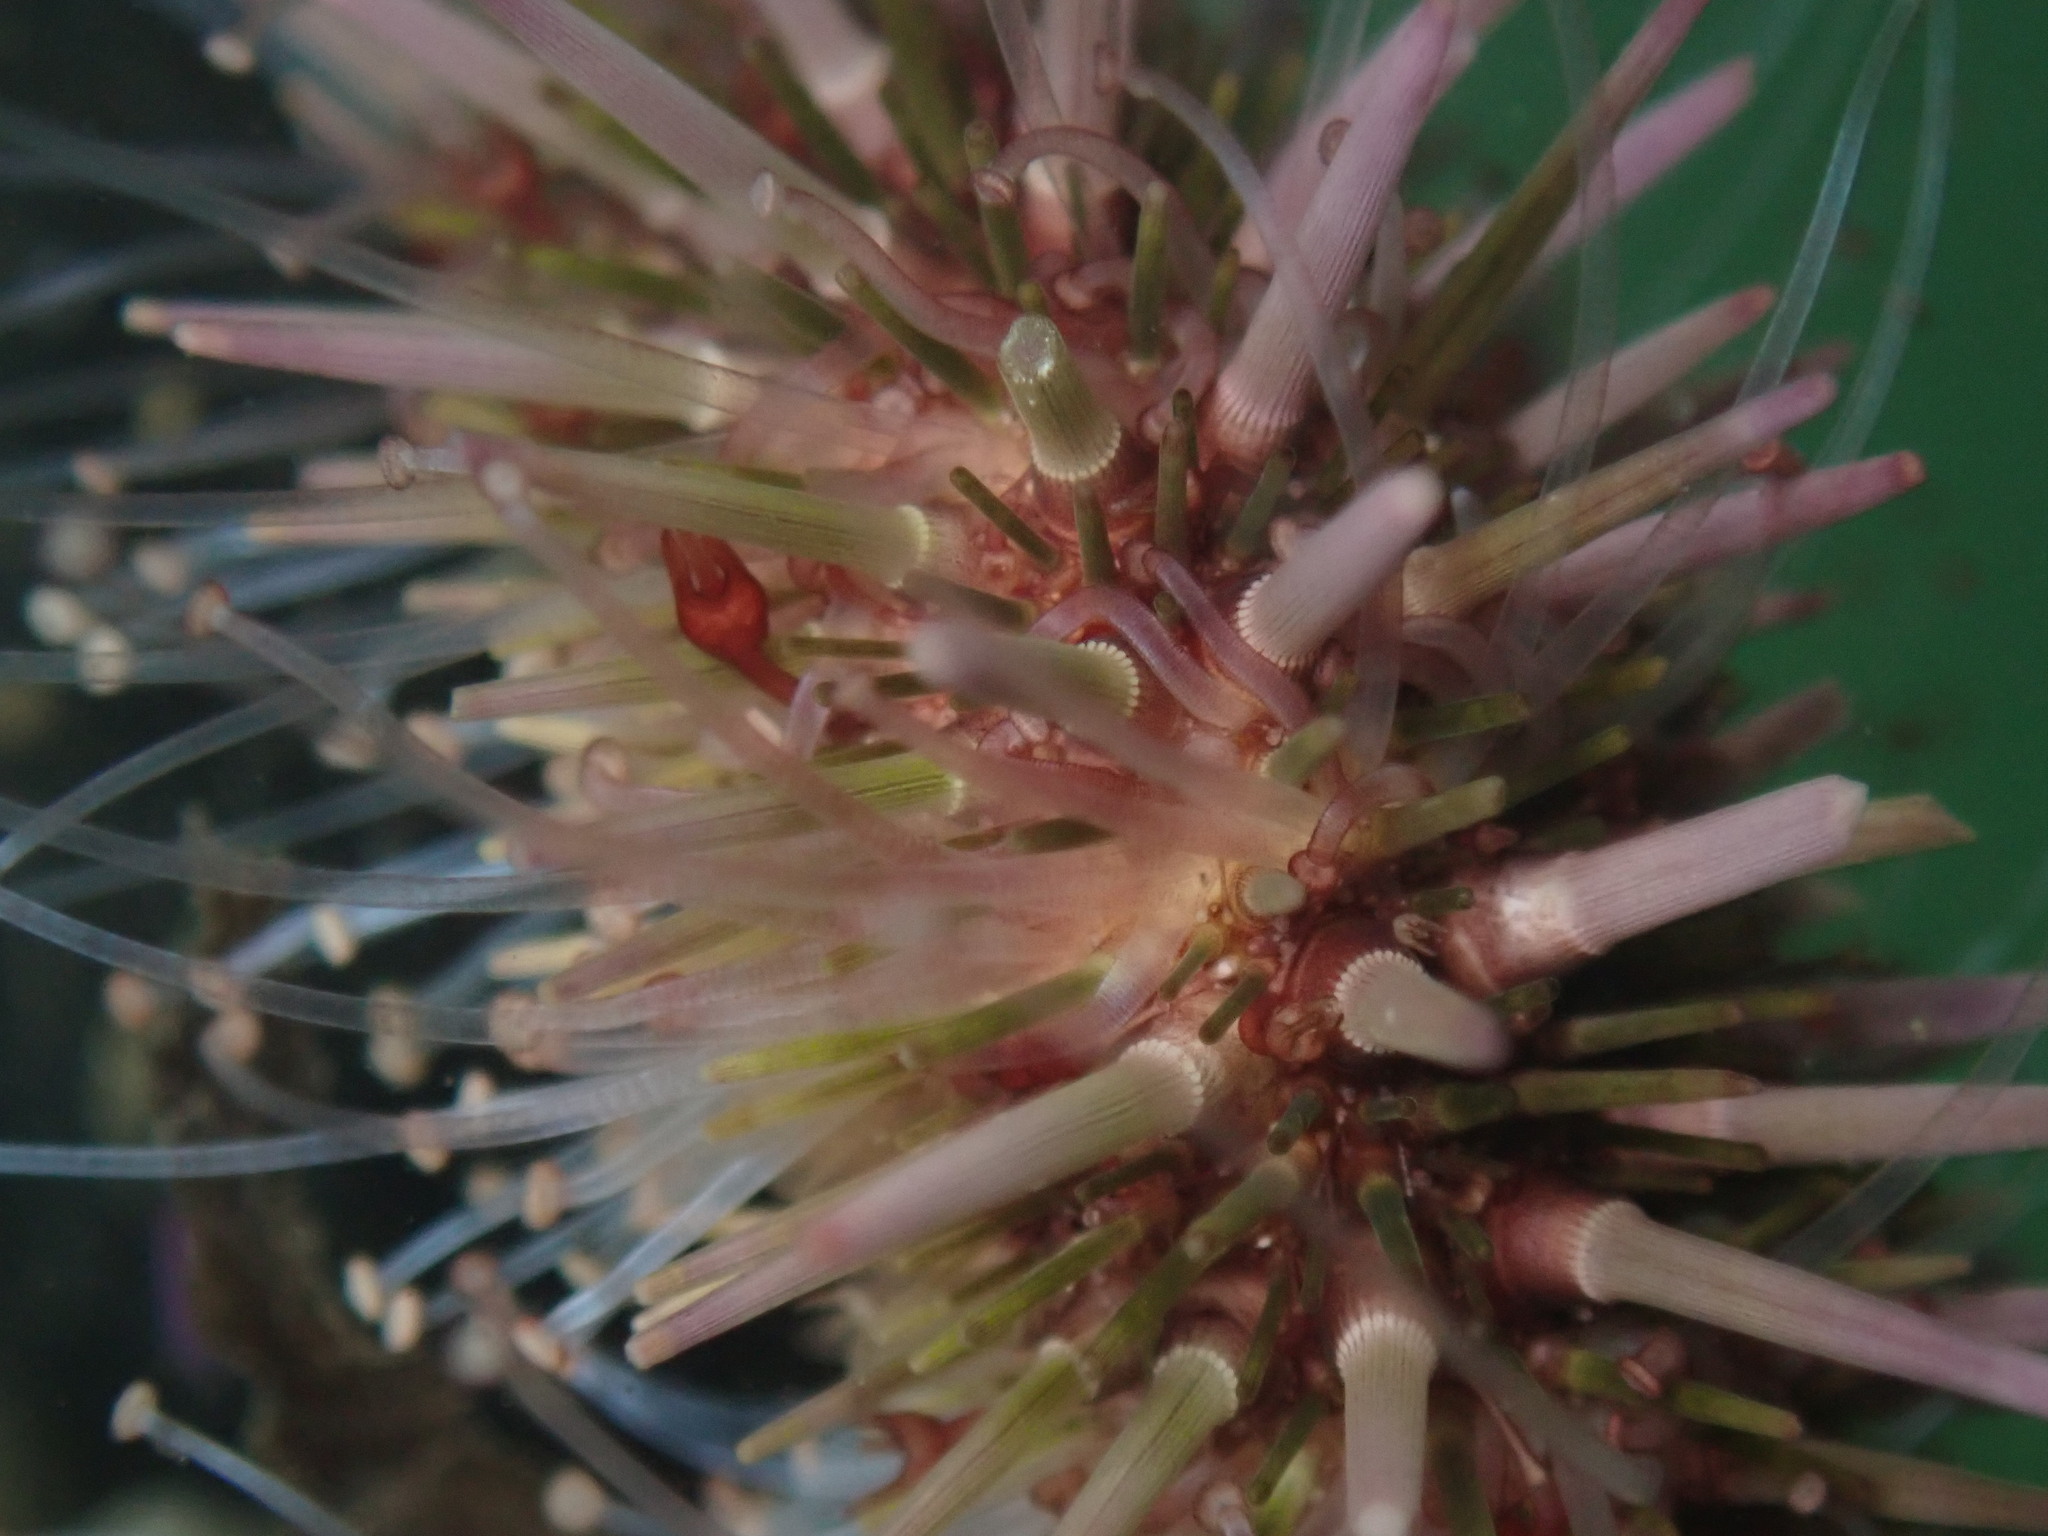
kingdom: Animalia
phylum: Echinodermata
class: Echinoidea
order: Camarodonta
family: Strongylocentrotidae
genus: Strongylocentrotus
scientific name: Strongylocentrotus purpuratus
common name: Purple sea urchin
